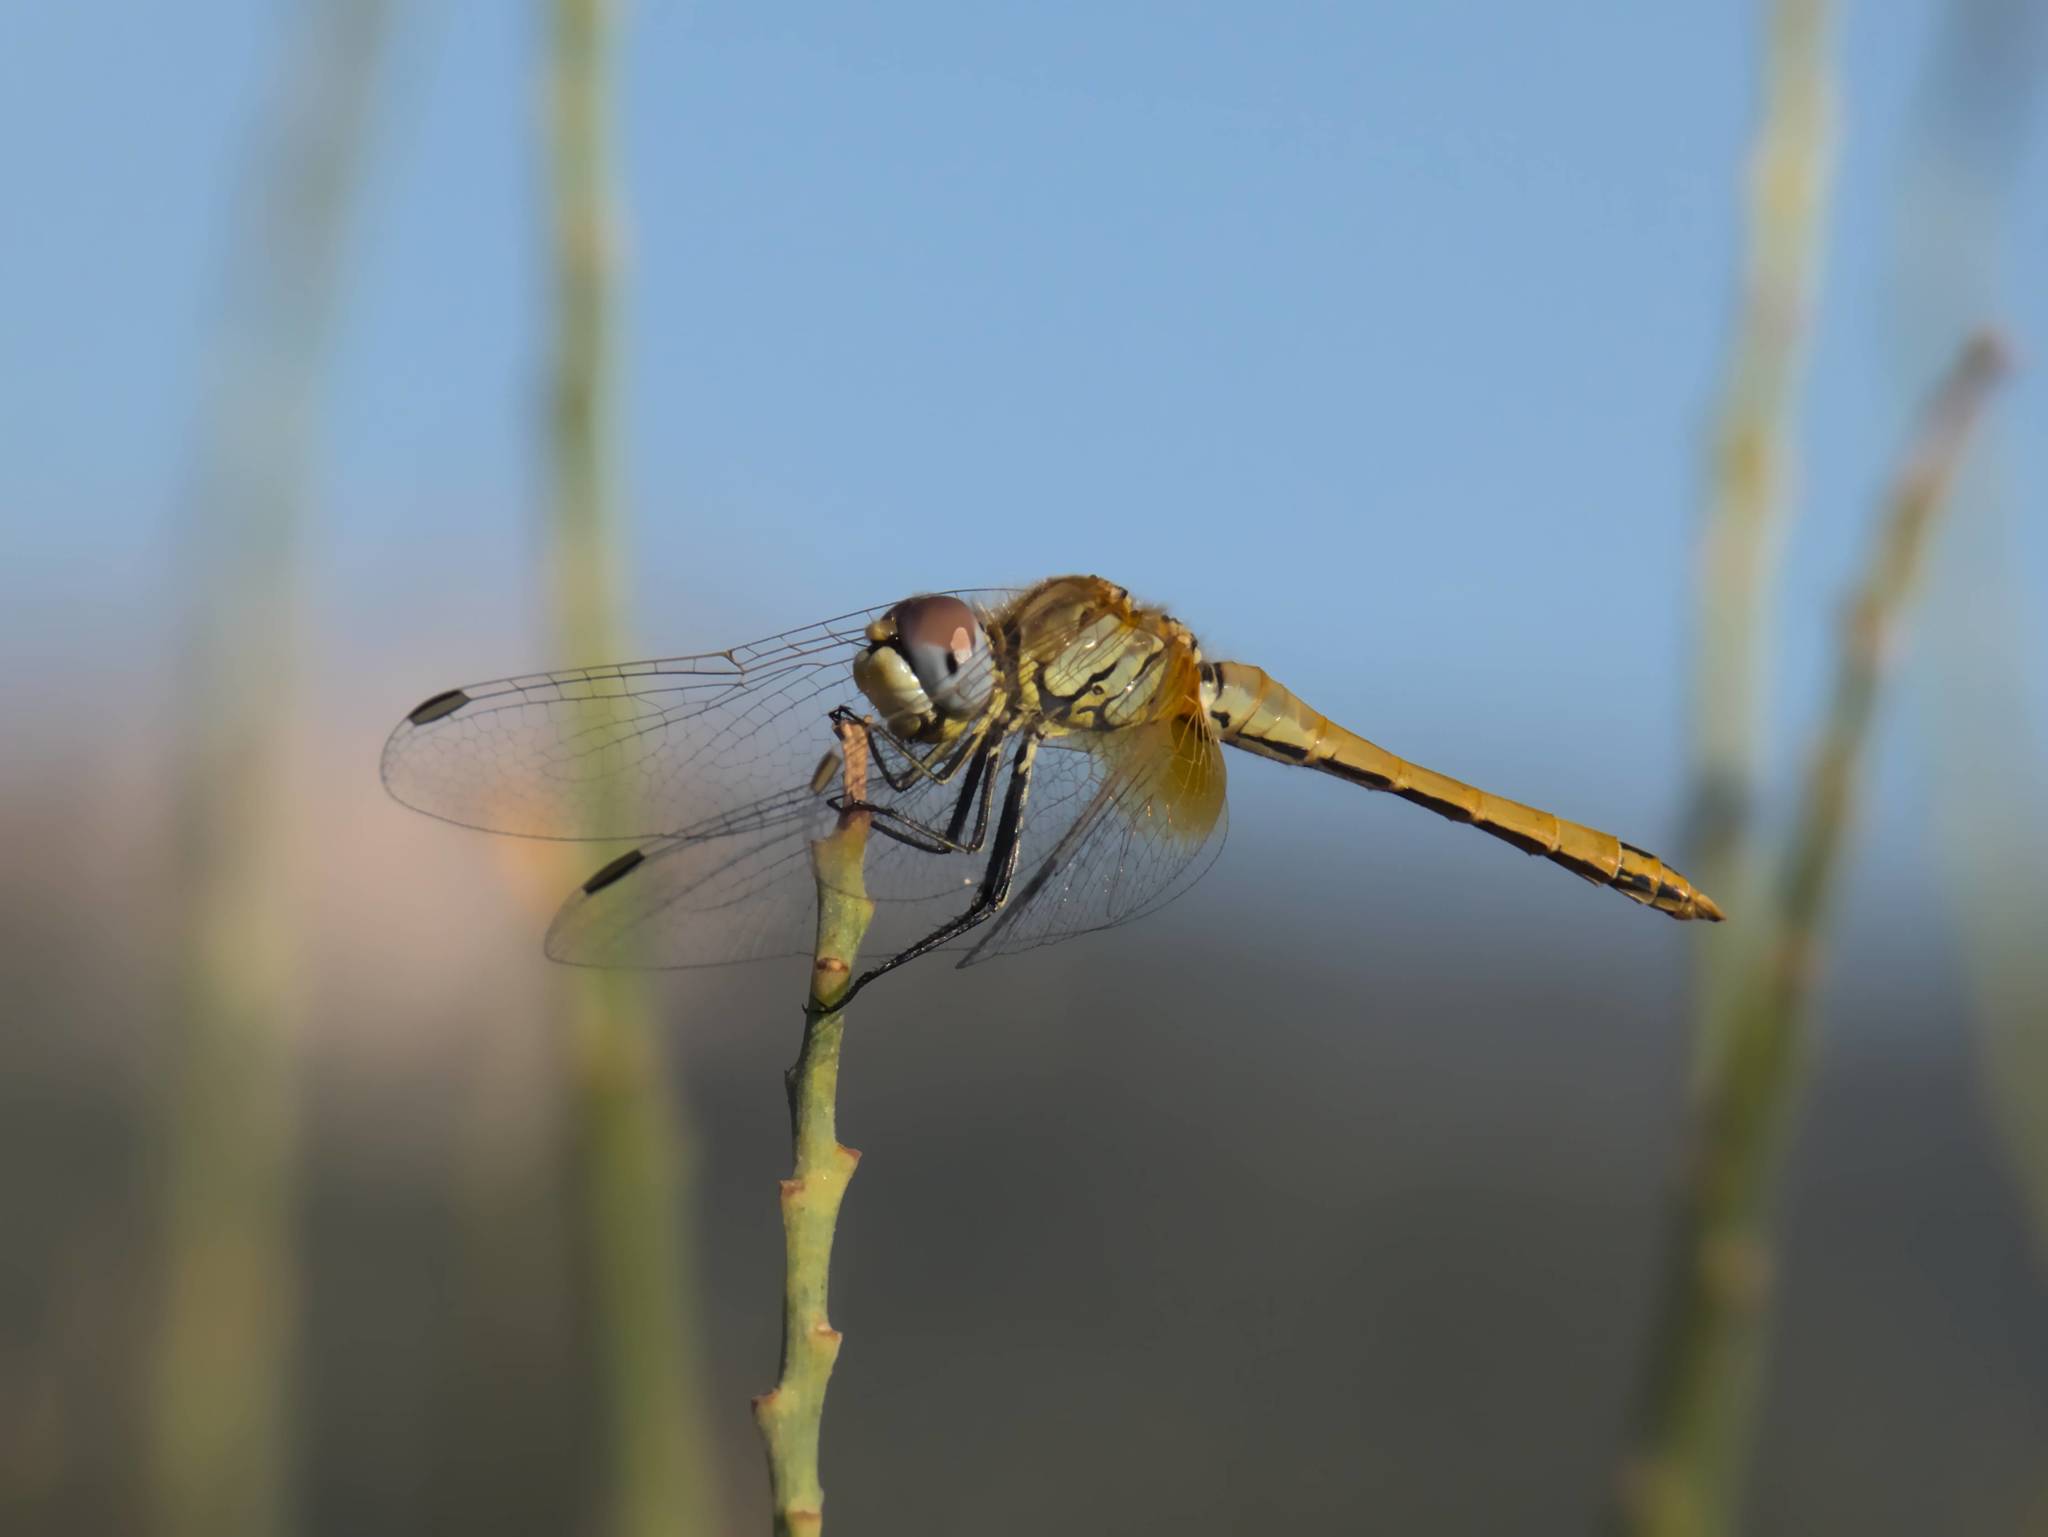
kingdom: Animalia
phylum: Arthropoda
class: Insecta
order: Odonata
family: Libellulidae
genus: Sympetrum
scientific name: Sympetrum fonscolombii
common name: Red-veined darter
